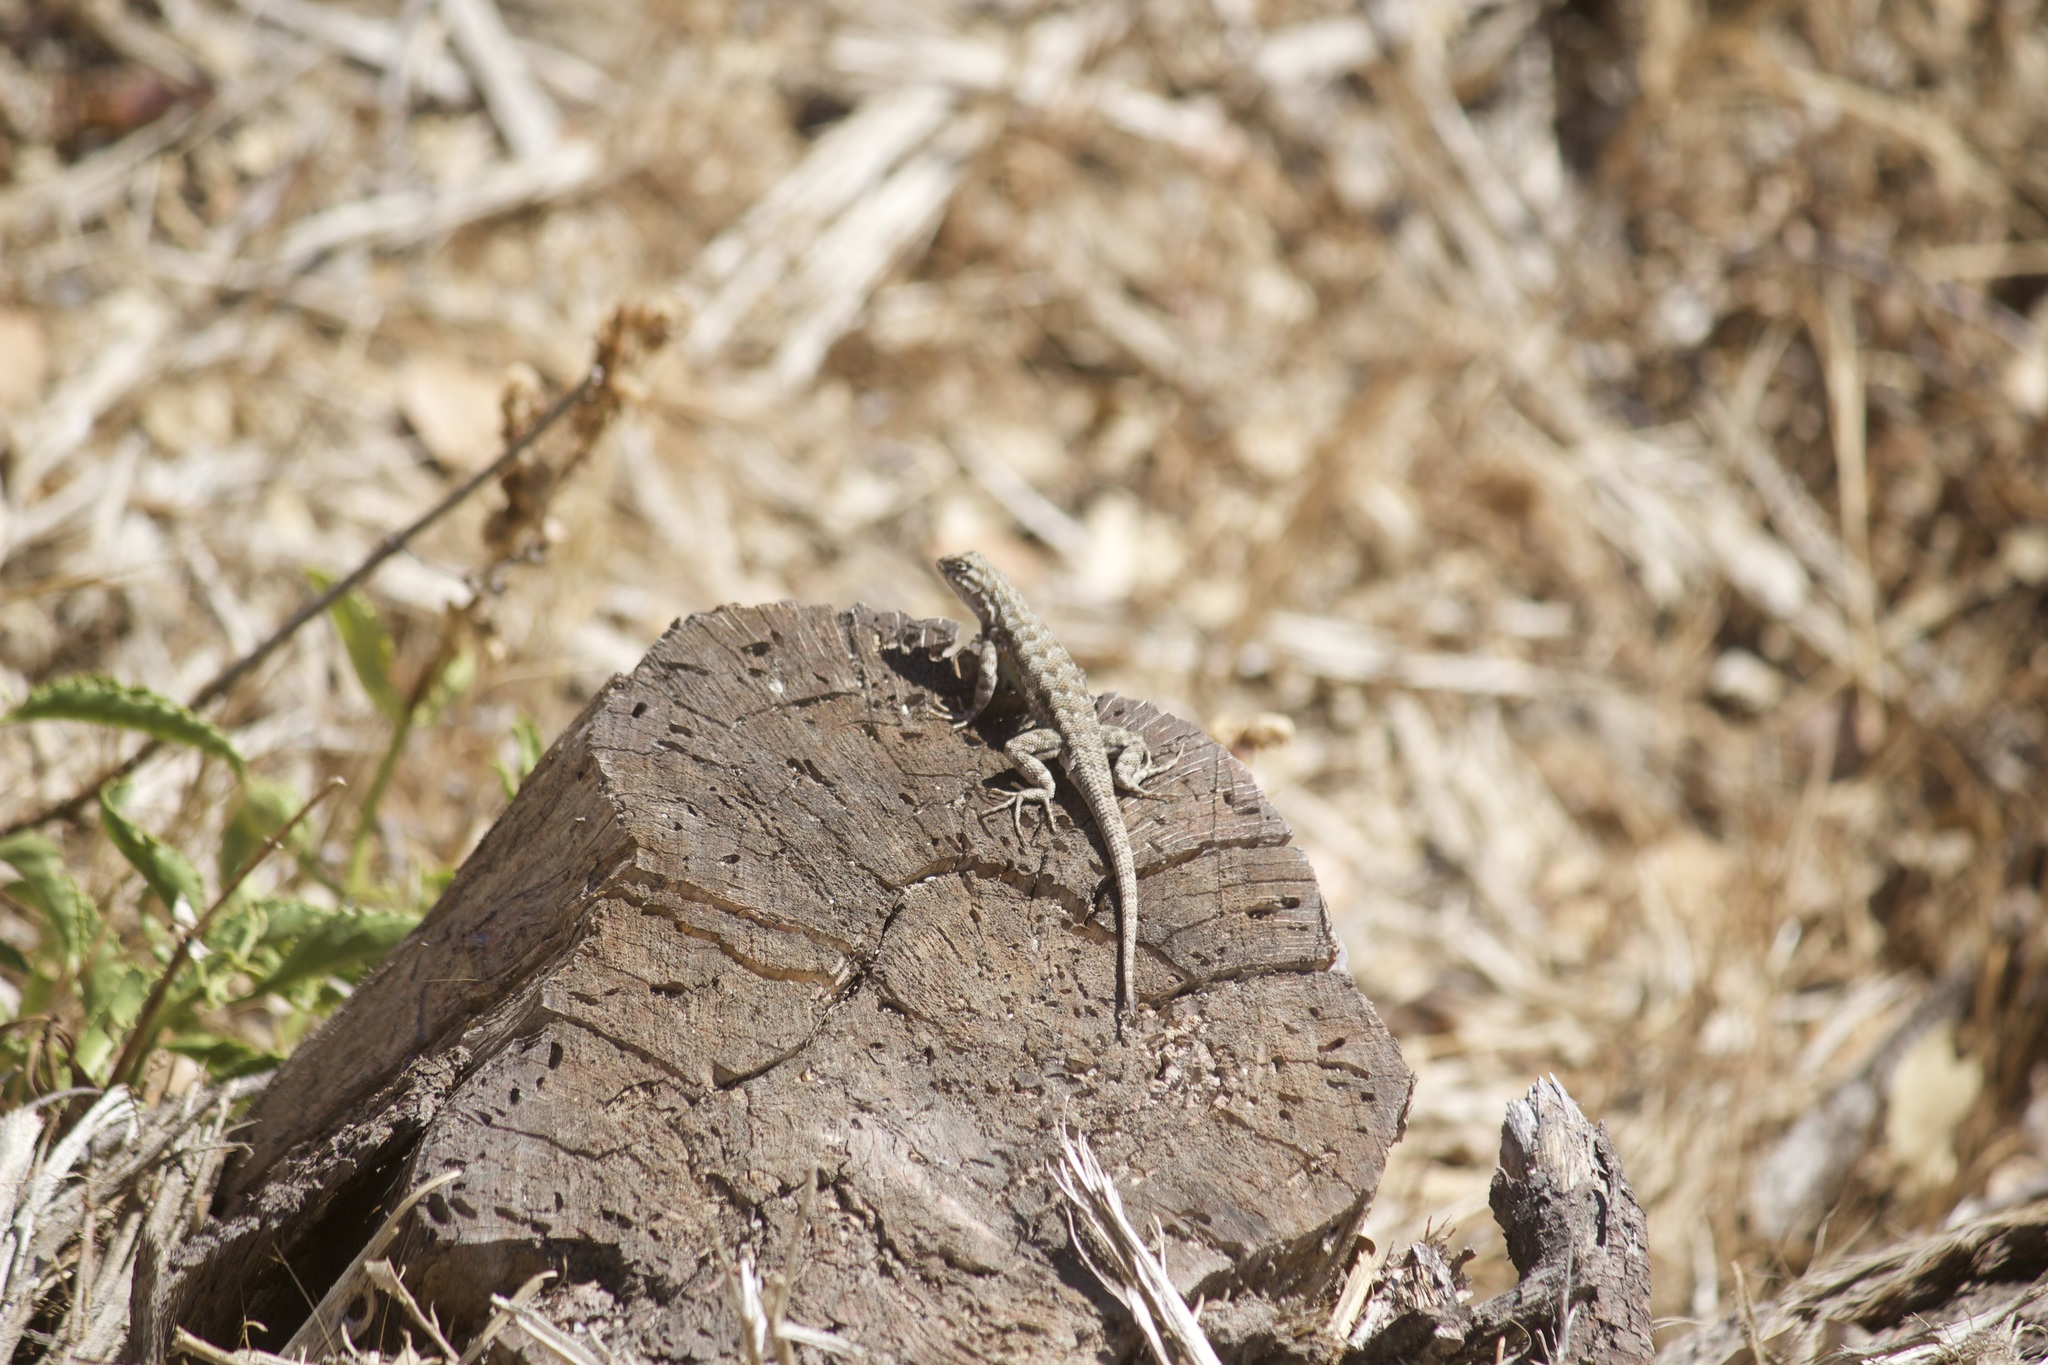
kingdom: Animalia
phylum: Chordata
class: Squamata
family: Phrynosomatidae
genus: Sceloporus
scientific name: Sceloporus graciosus
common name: Sagebrush lizard
